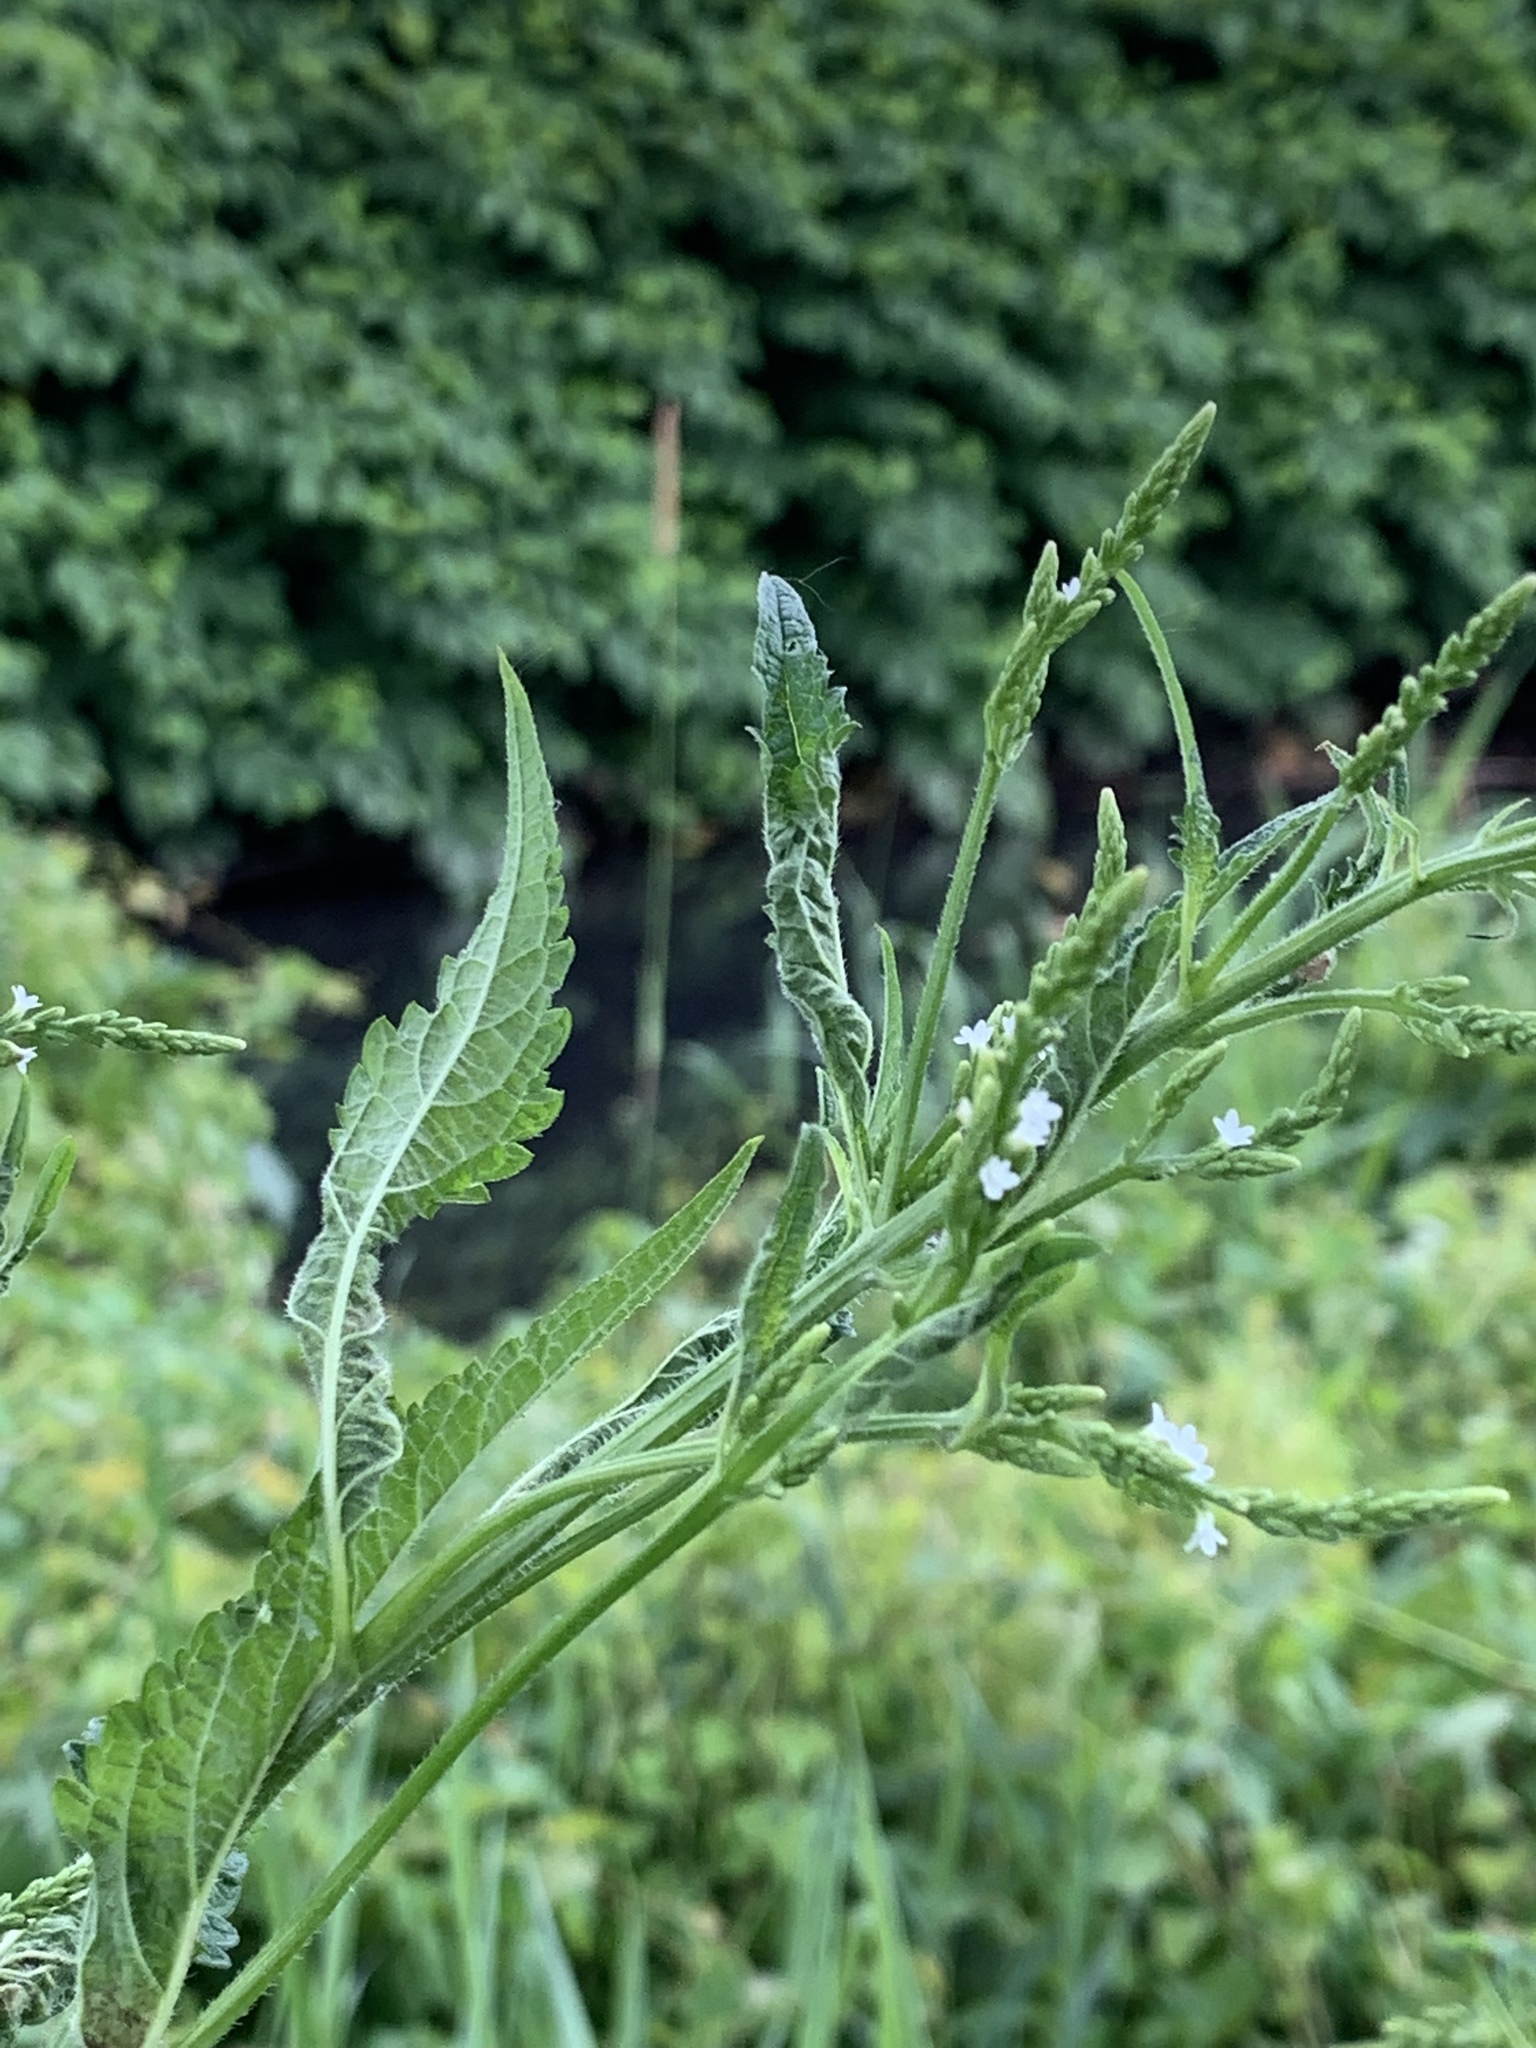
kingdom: Plantae
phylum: Tracheophyta
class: Magnoliopsida
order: Lamiales
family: Verbenaceae
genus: Verbena
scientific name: Verbena urticifolia
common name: Nettle-leaved vervain
